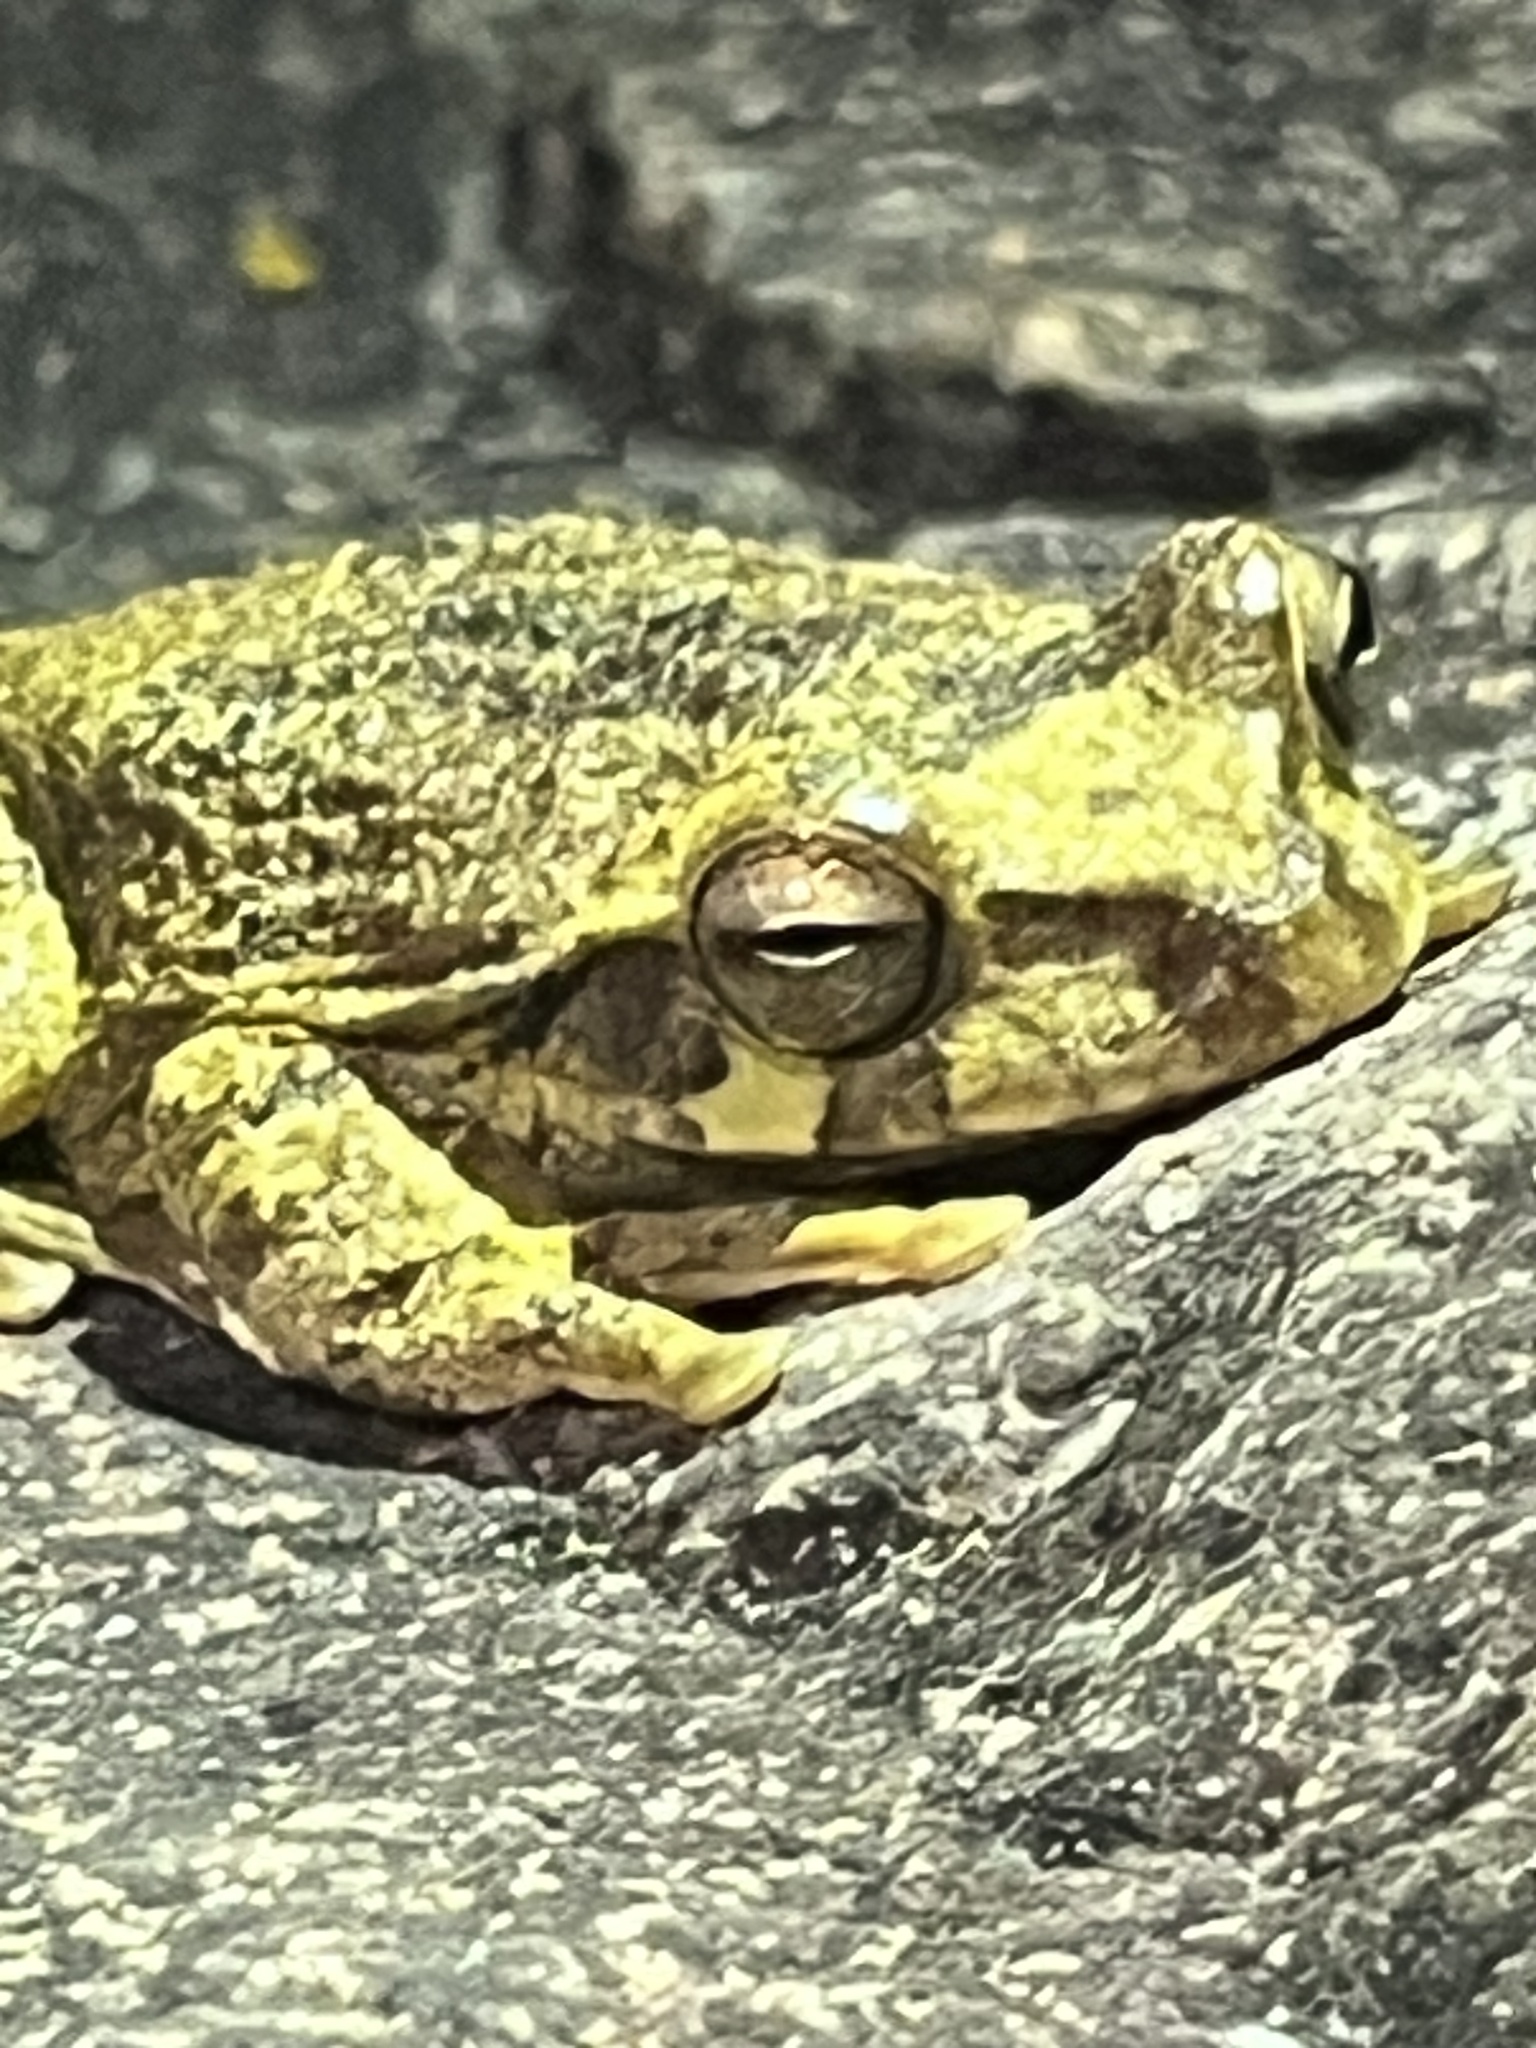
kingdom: Animalia
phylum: Chordata
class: Amphibia
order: Anura
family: Hylidae
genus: Smilisca
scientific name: Smilisca baudinii
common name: Mexican smilisca
